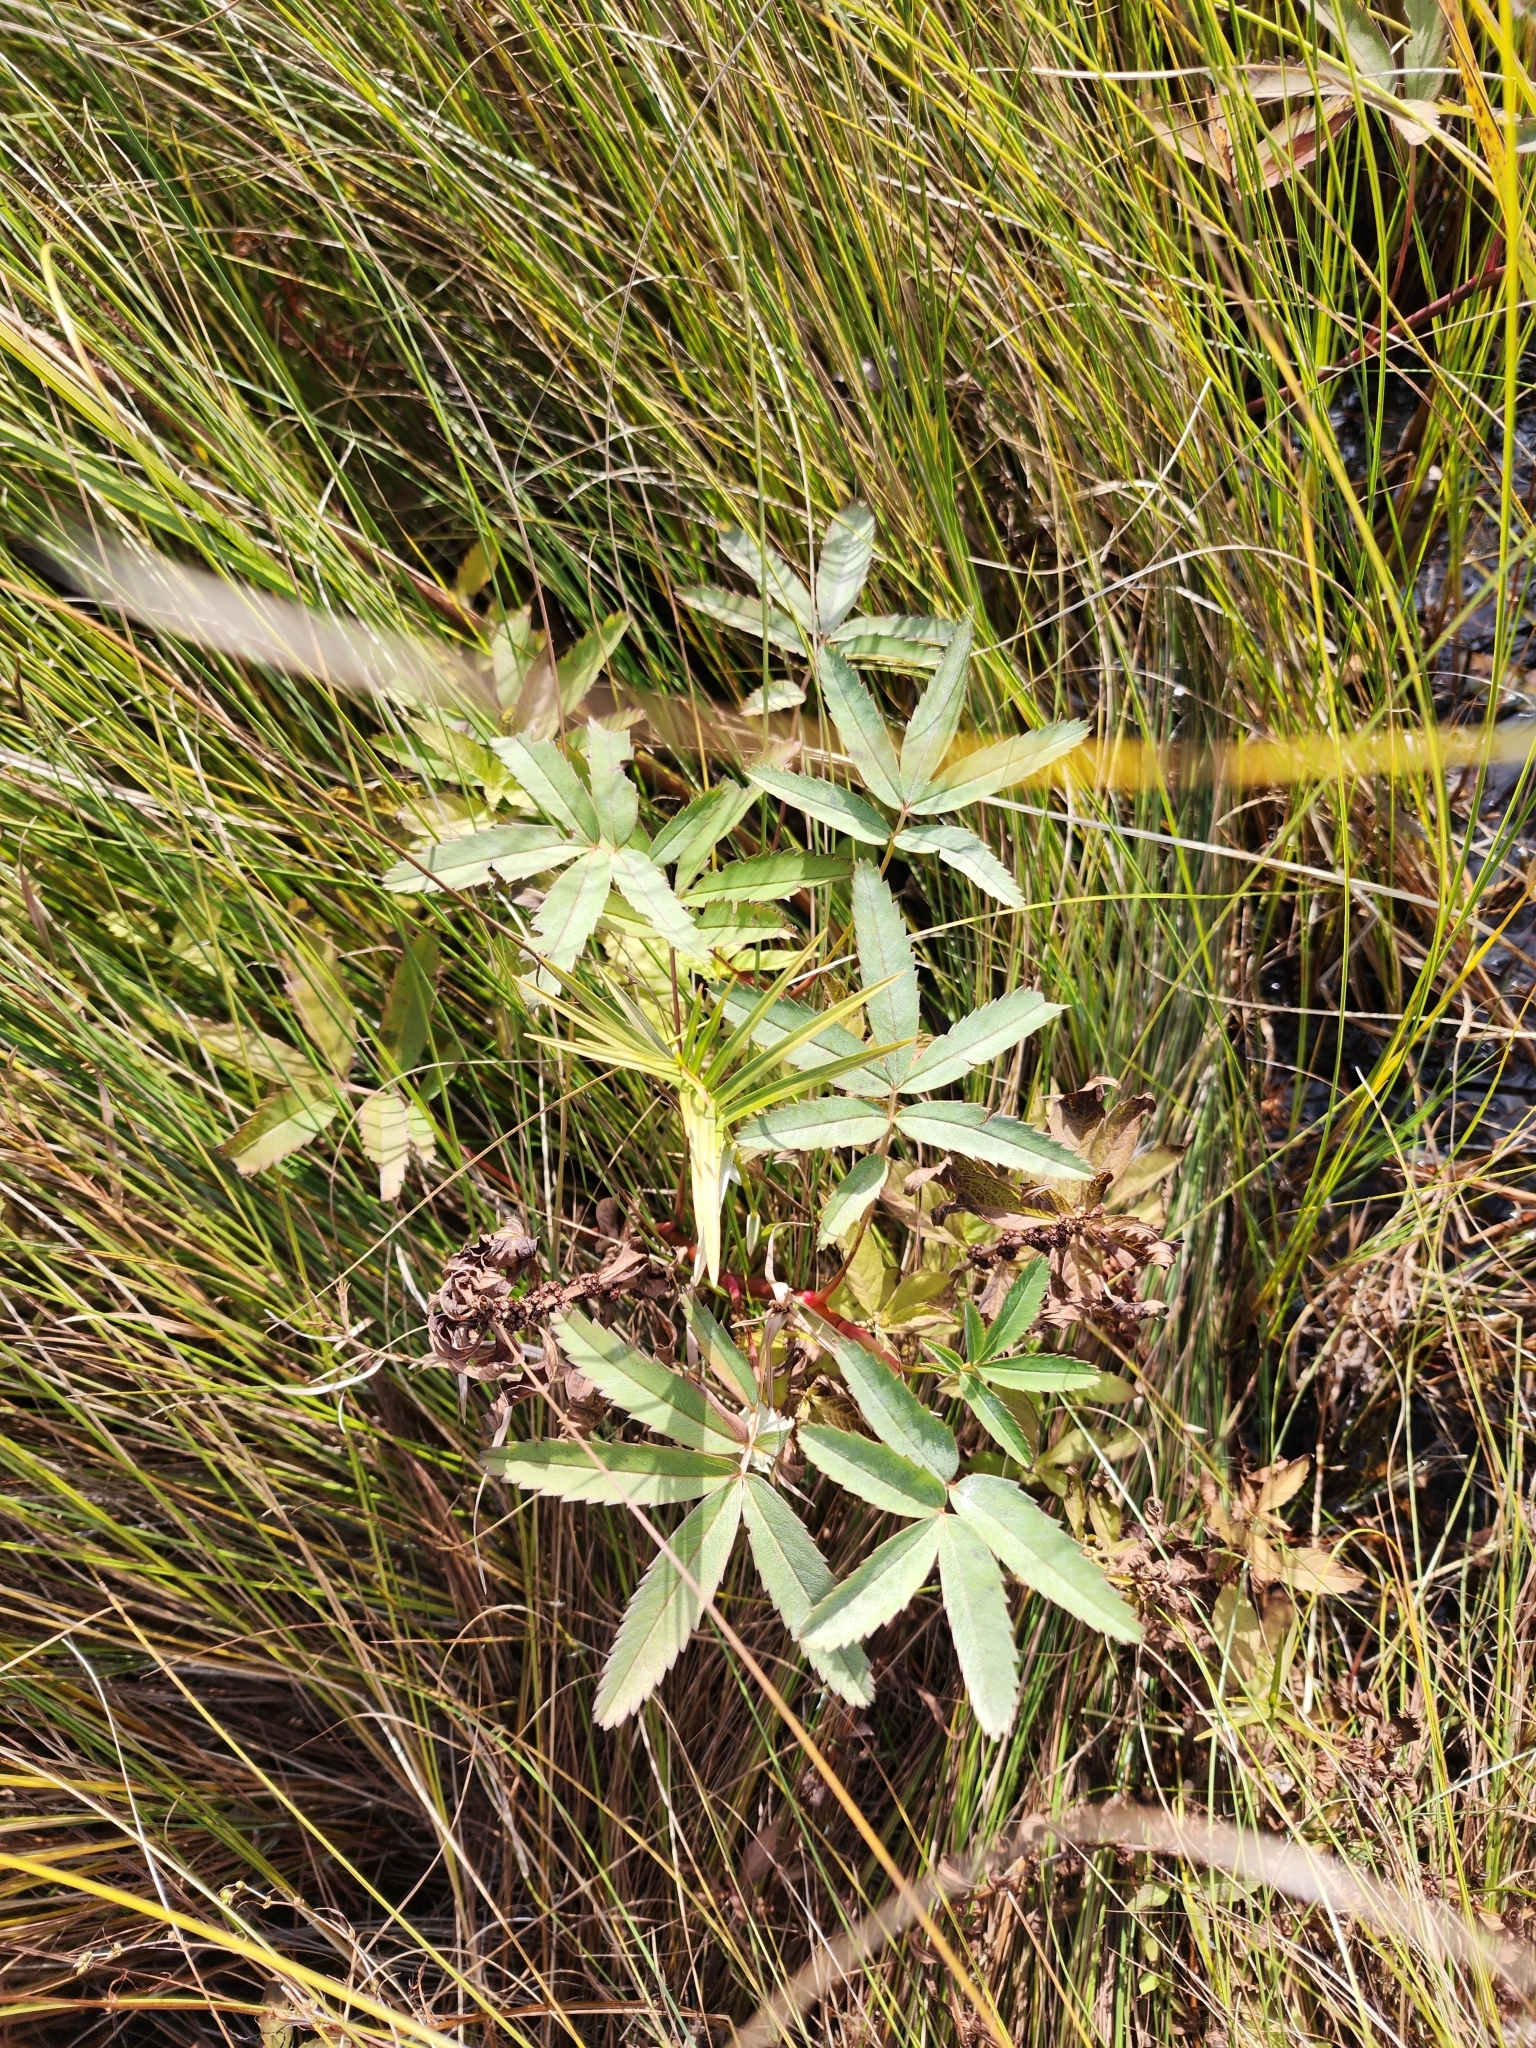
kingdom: Plantae
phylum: Tracheophyta
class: Magnoliopsida
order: Rosales
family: Rosaceae
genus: Comarum
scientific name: Comarum palustre
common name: Marsh cinquefoil
